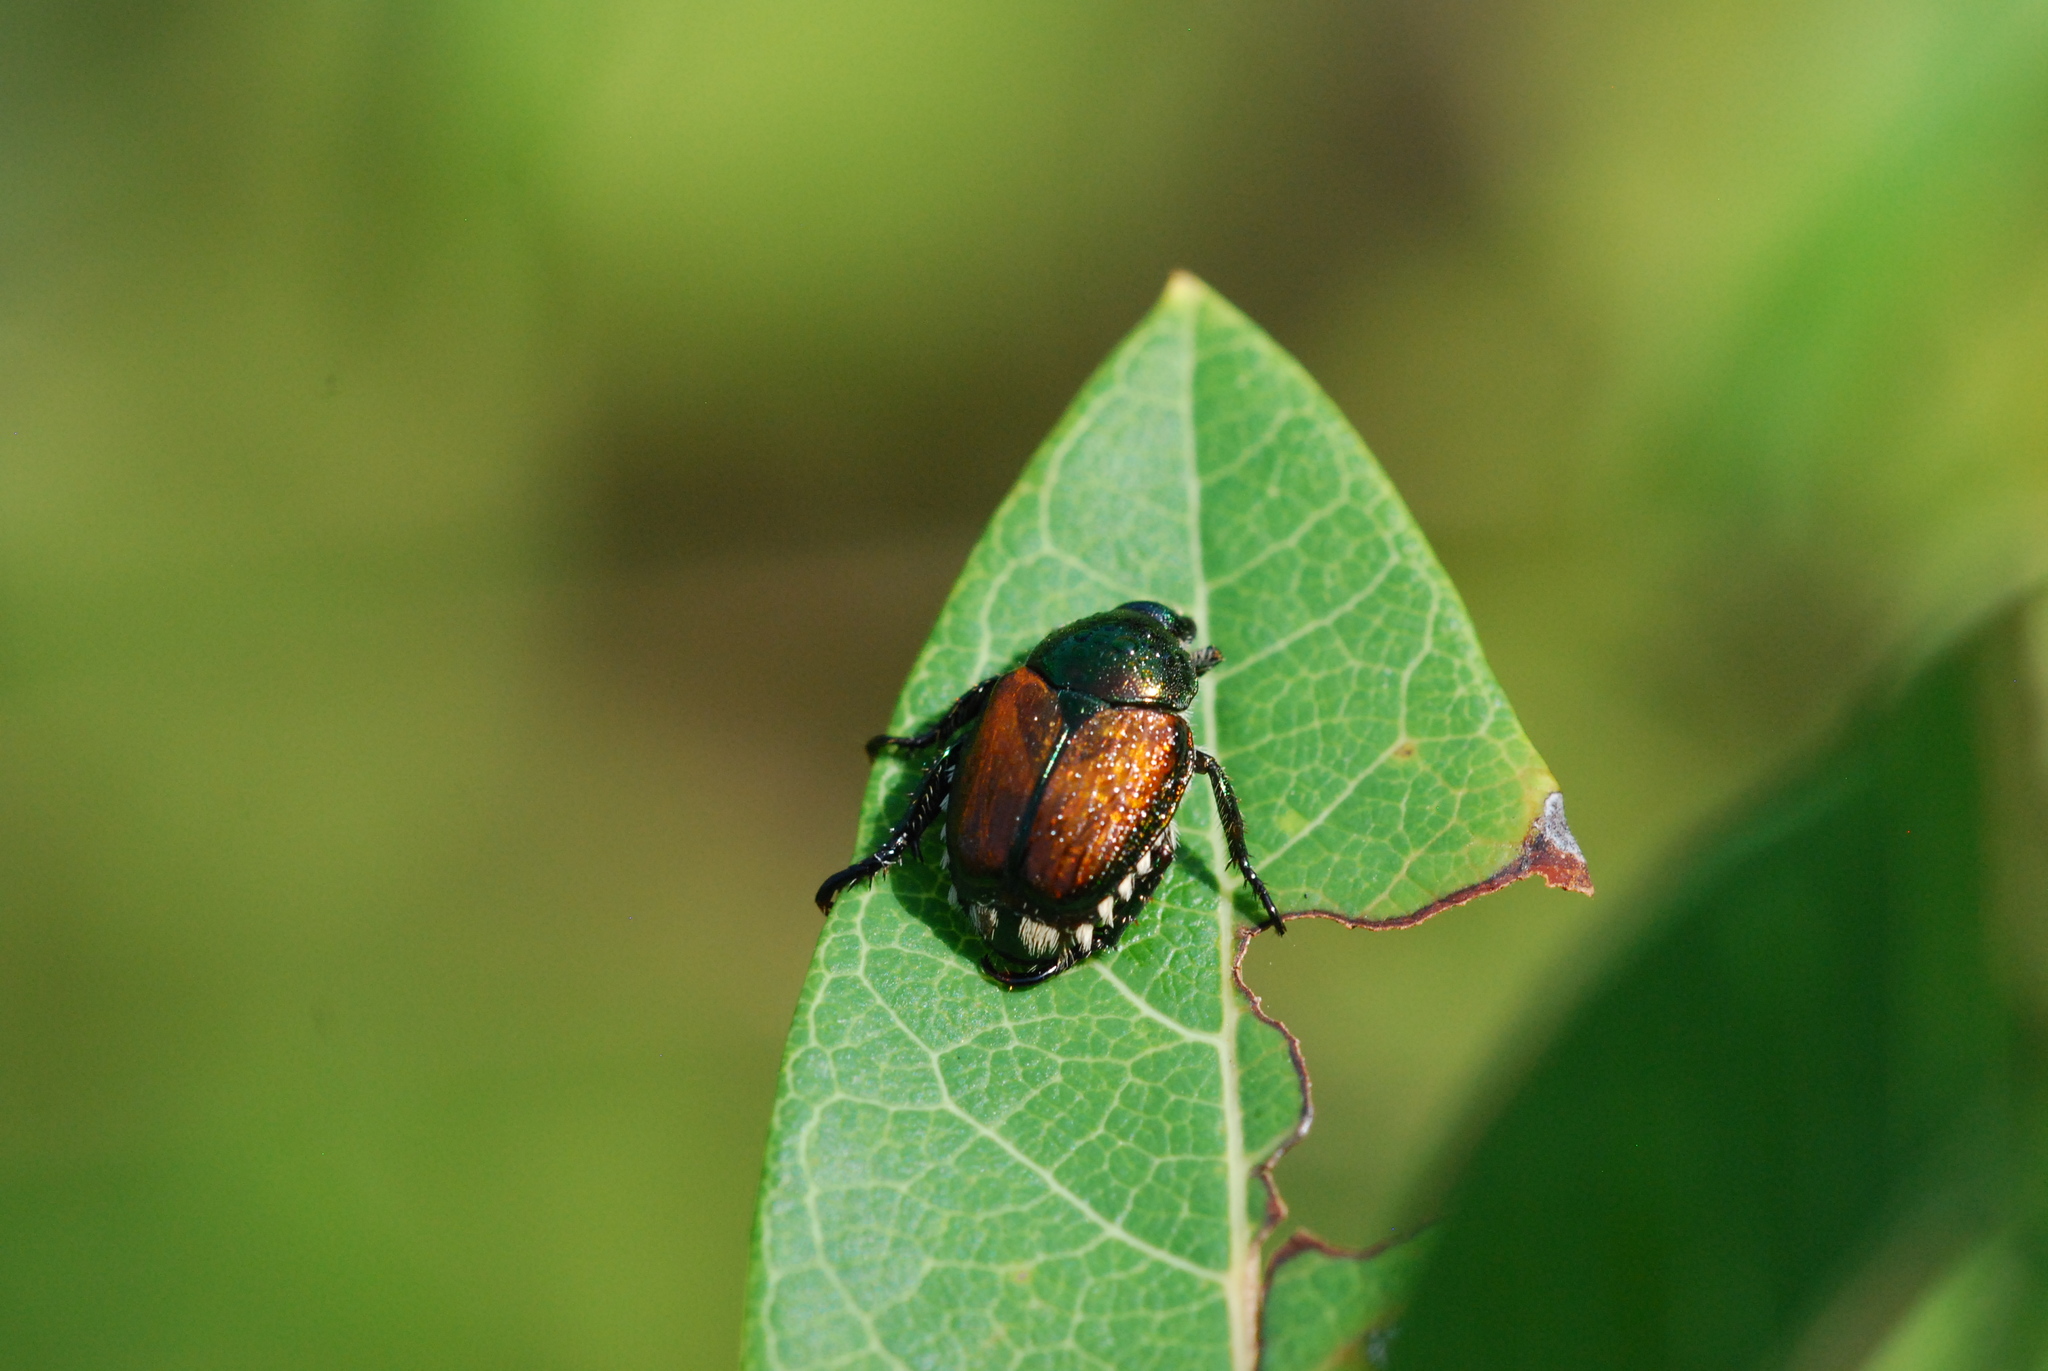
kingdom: Animalia
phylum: Arthropoda
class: Insecta
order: Coleoptera
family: Scarabaeidae
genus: Popillia
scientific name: Popillia japonica
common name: Japanese beetle
